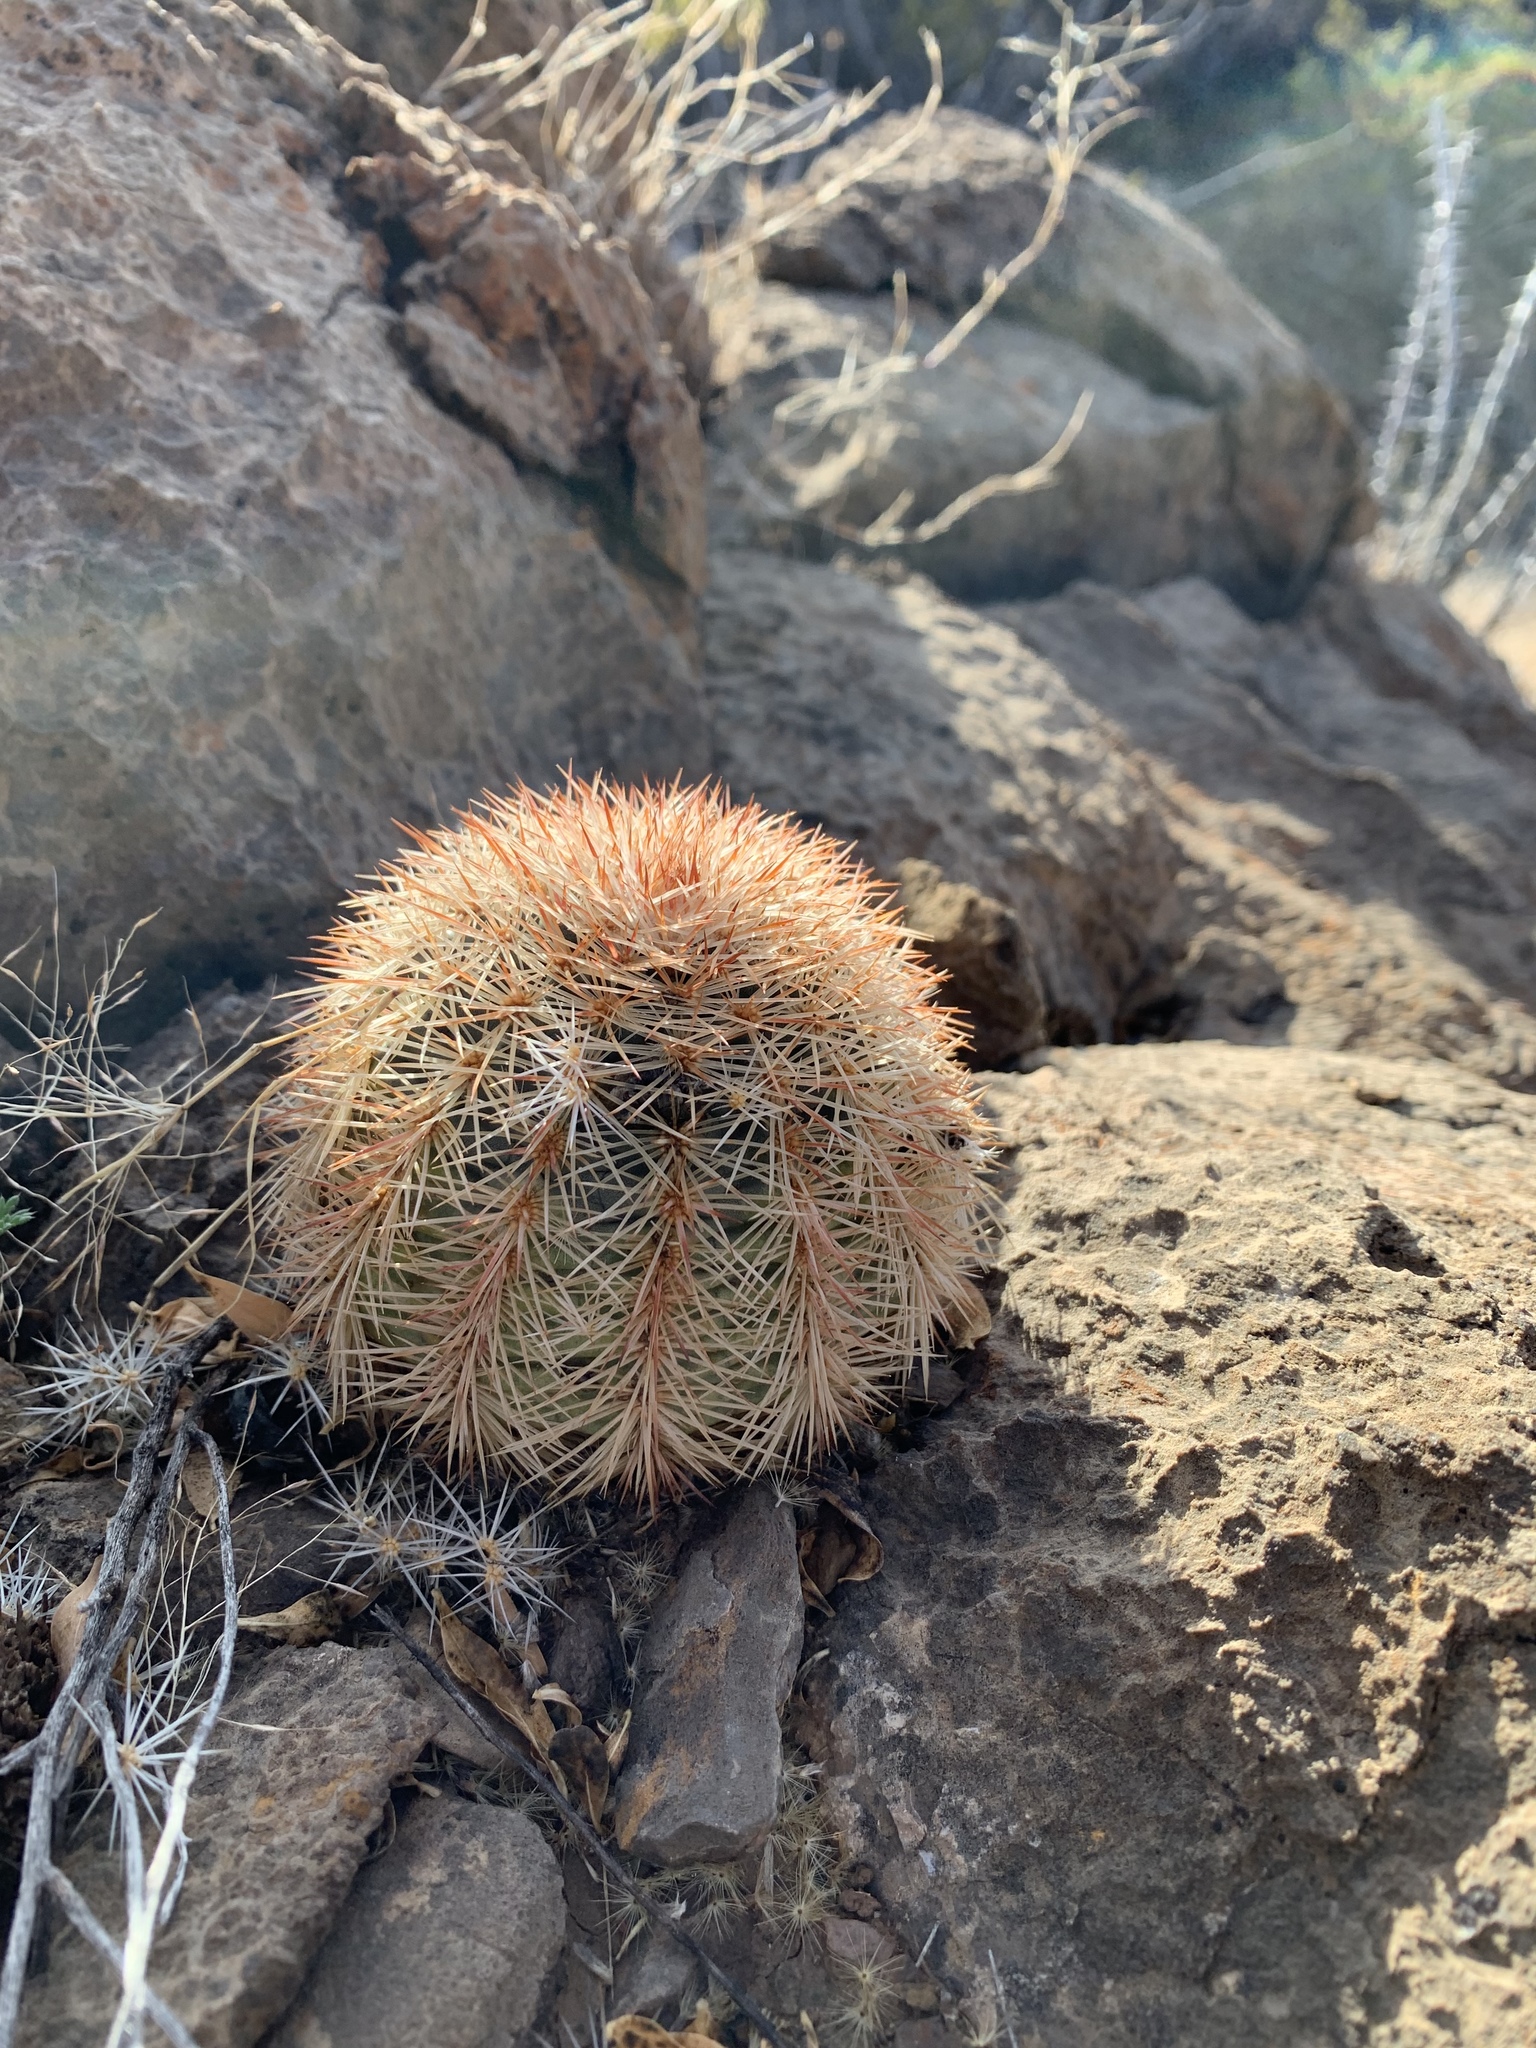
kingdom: Plantae
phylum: Tracheophyta
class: Magnoliopsida
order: Caryophyllales
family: Cactaceae
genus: Echinocereus
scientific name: Echinocereus dasyacanthus
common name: Spiny hedgehog cactus
